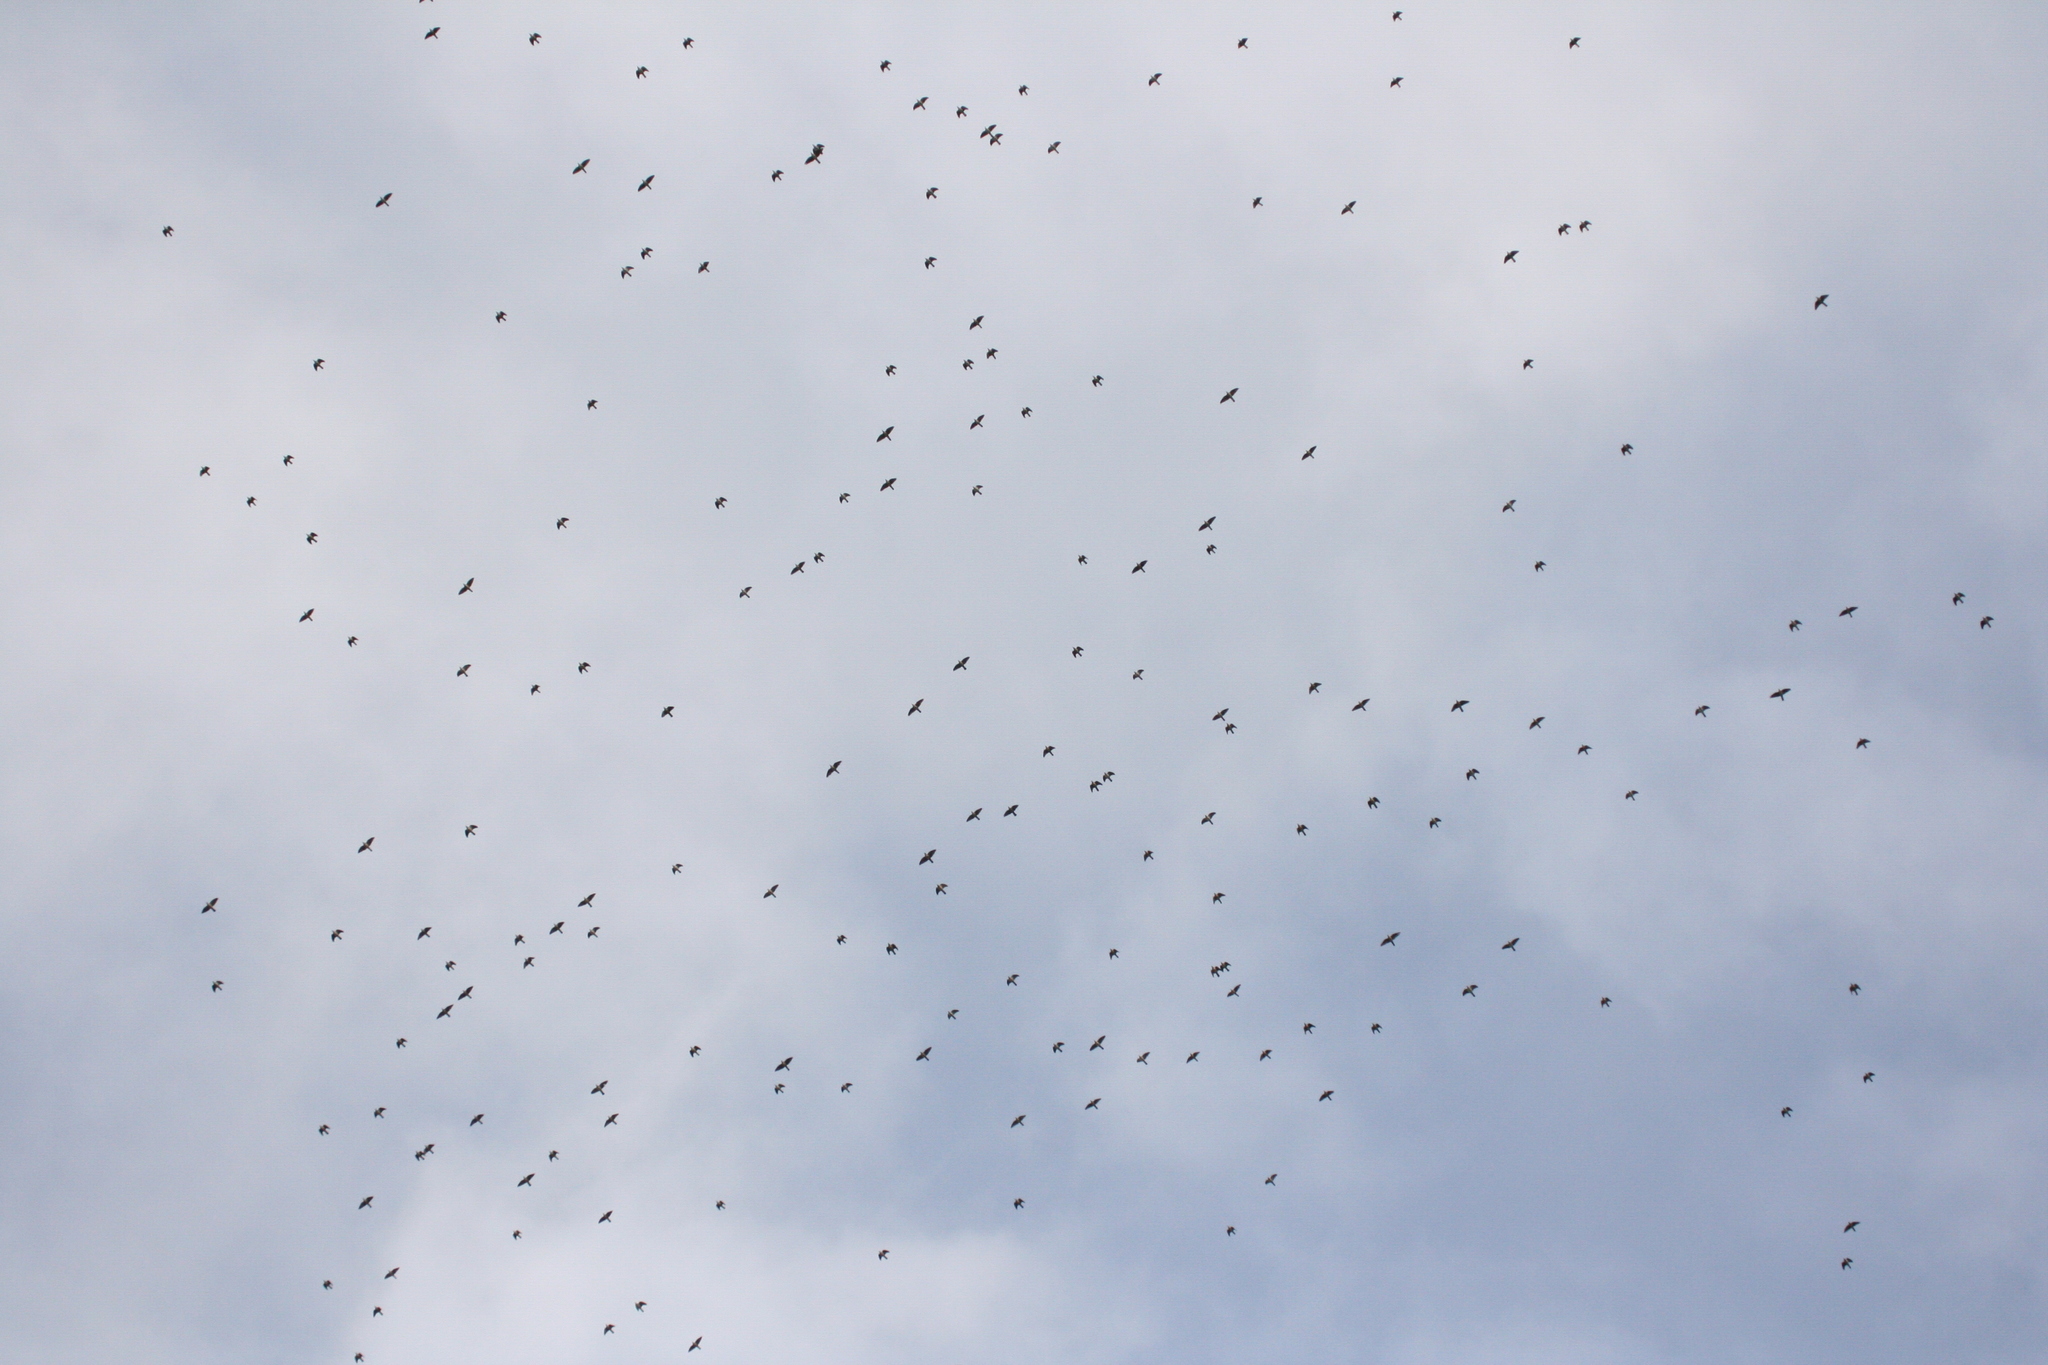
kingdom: Animalia
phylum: Chordata
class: Aves
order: Columbiformes
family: Columbidae
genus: Columba
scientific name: Columba palumbus
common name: Common wood pigeon
